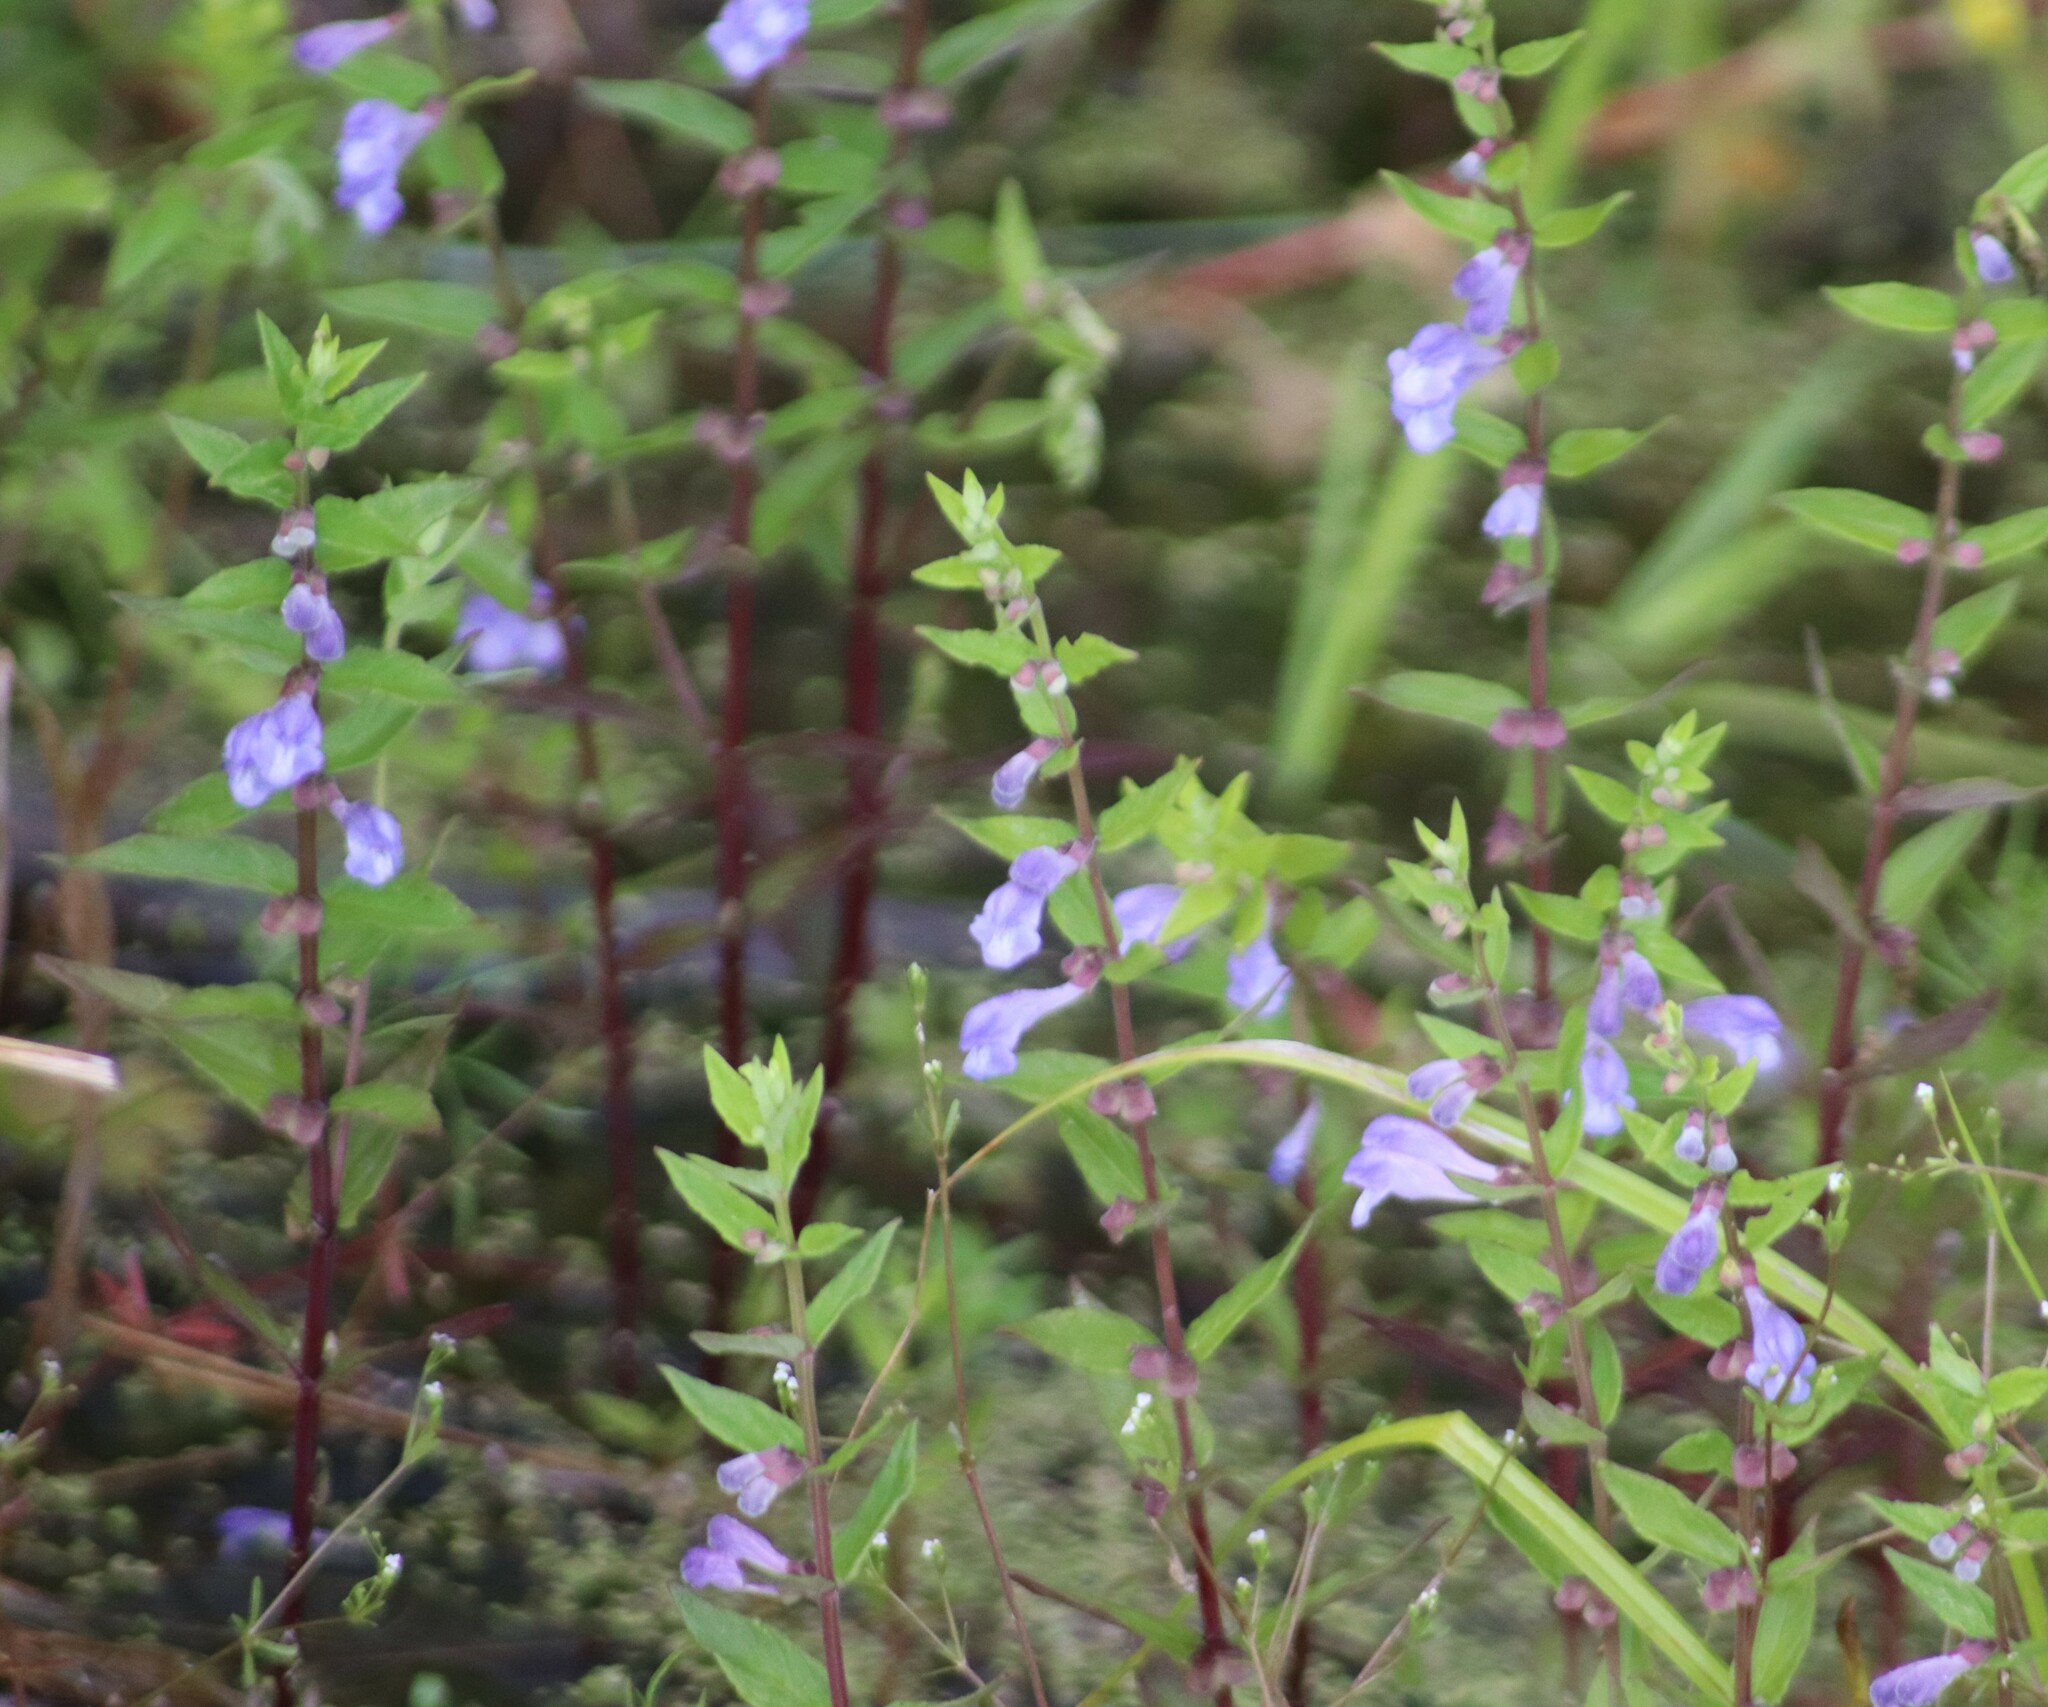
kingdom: Plantae
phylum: Tracheophyta
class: Magnoliopsida
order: Lamiales
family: Lamiaceae
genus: Scutellaria
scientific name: Scutellaria galericulata
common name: Skullcap
